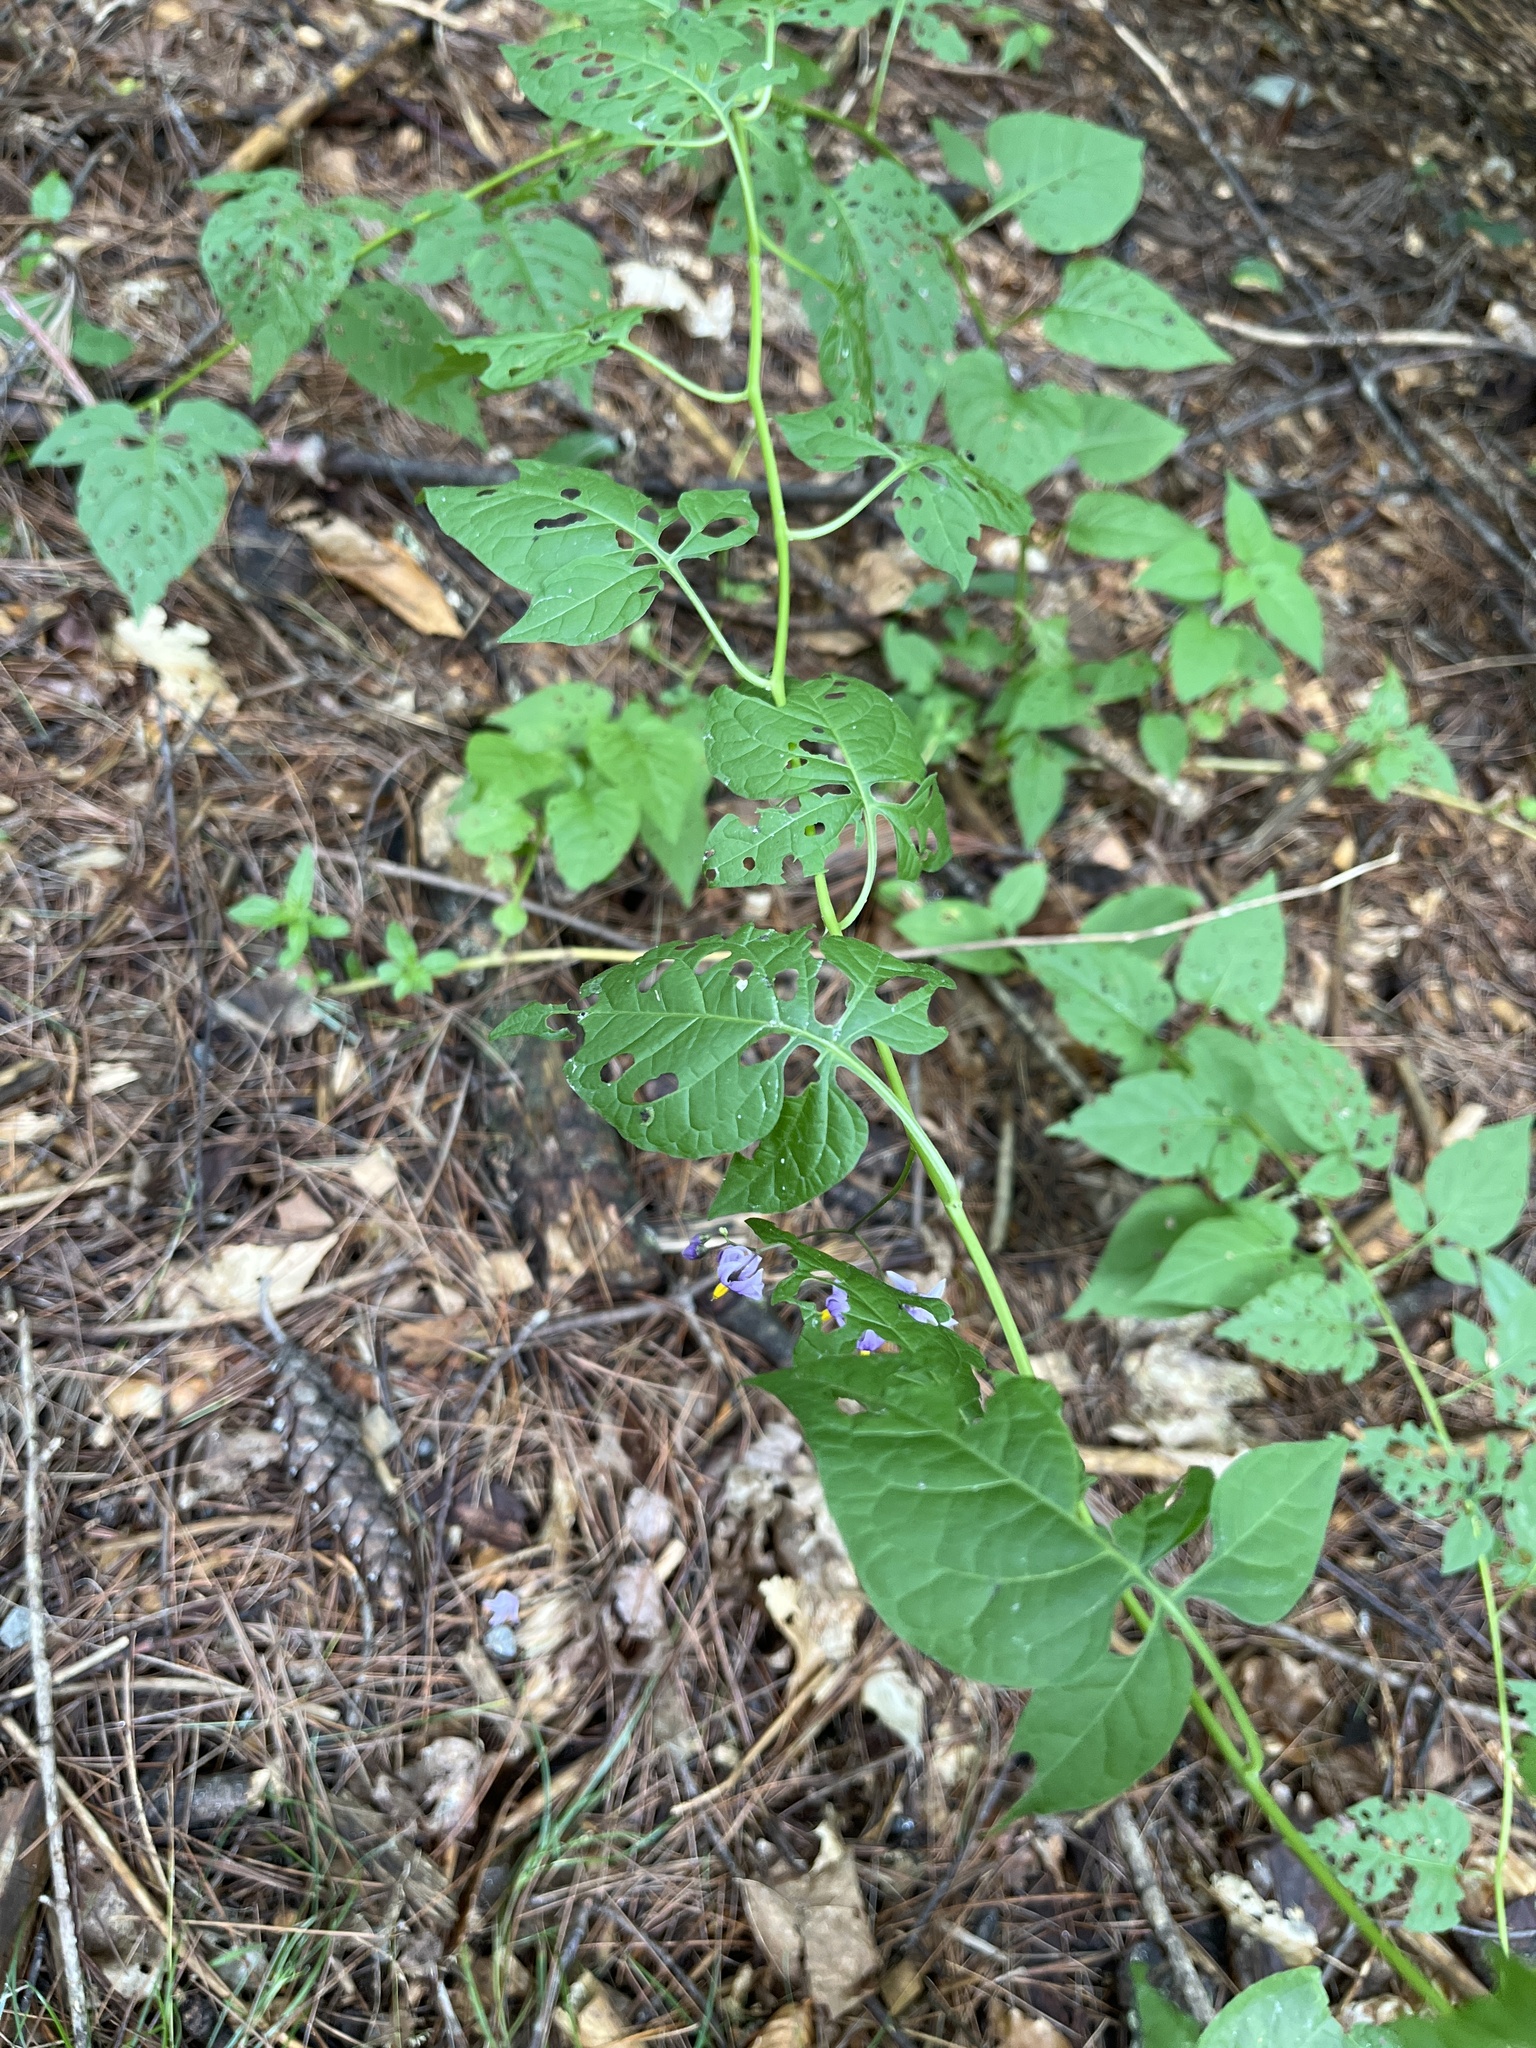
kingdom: Plantae
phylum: Tracheophyta
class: Magnoliopsida
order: Solanales
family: Solanaceae
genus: Solanum
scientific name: Solanum dulcamara
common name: Climbing nightshade
